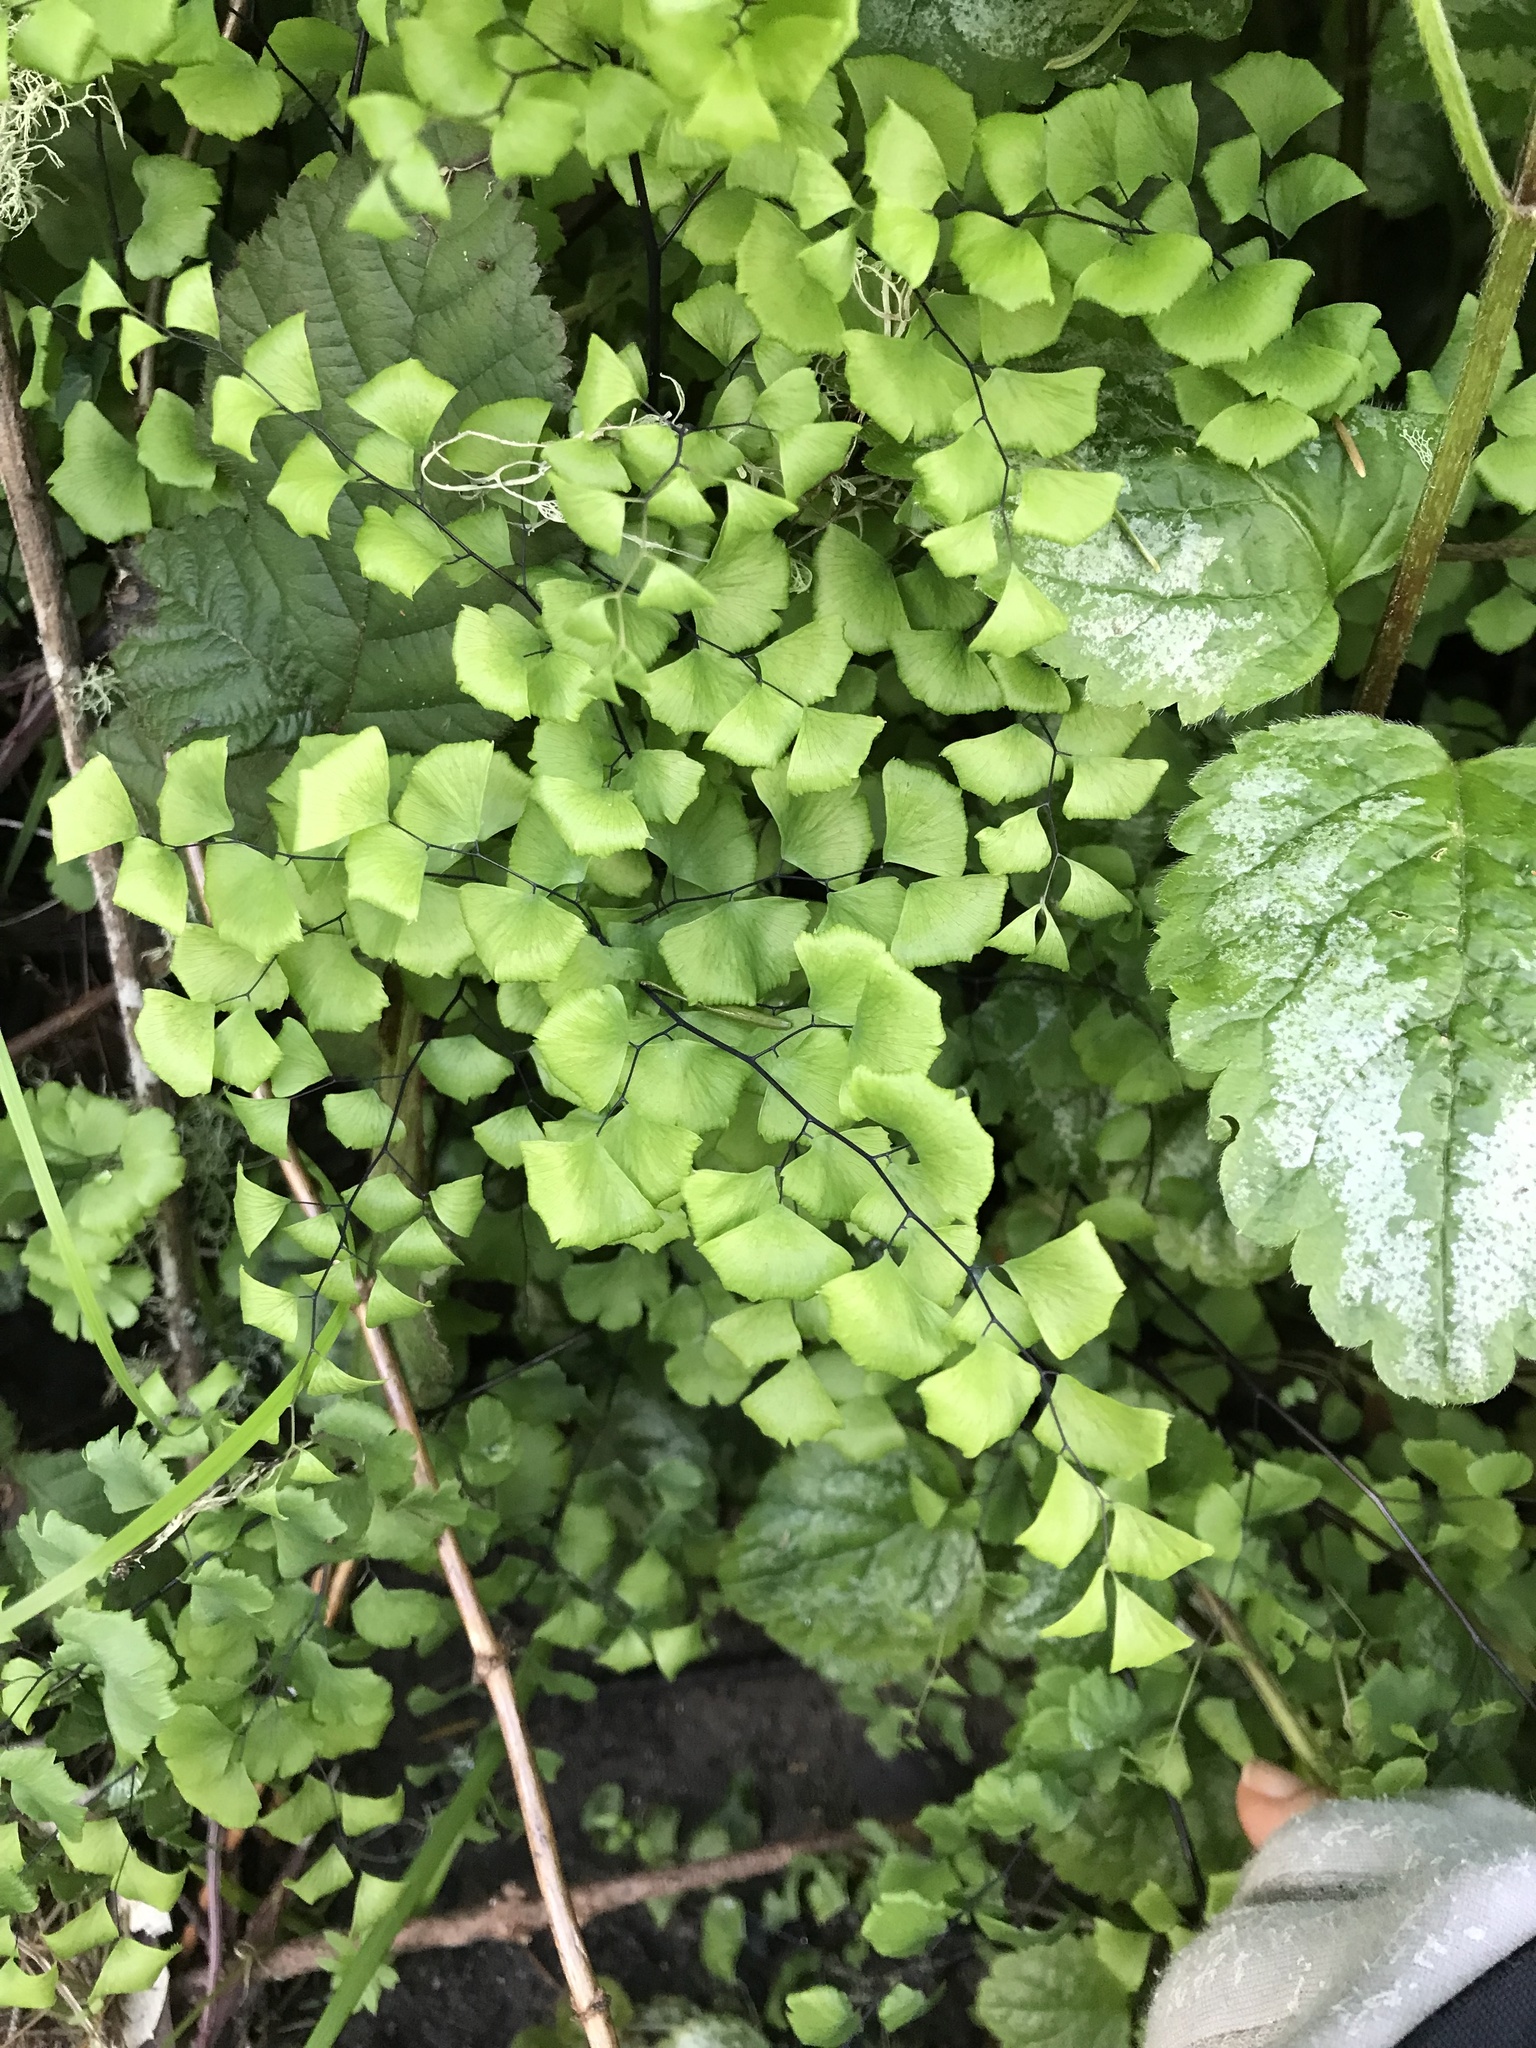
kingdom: Plantae
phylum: Tracheophyta
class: Polypodiopsida
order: Polypodiales
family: Pteridaceae
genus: Adiantum
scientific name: Adiantum jordanii
